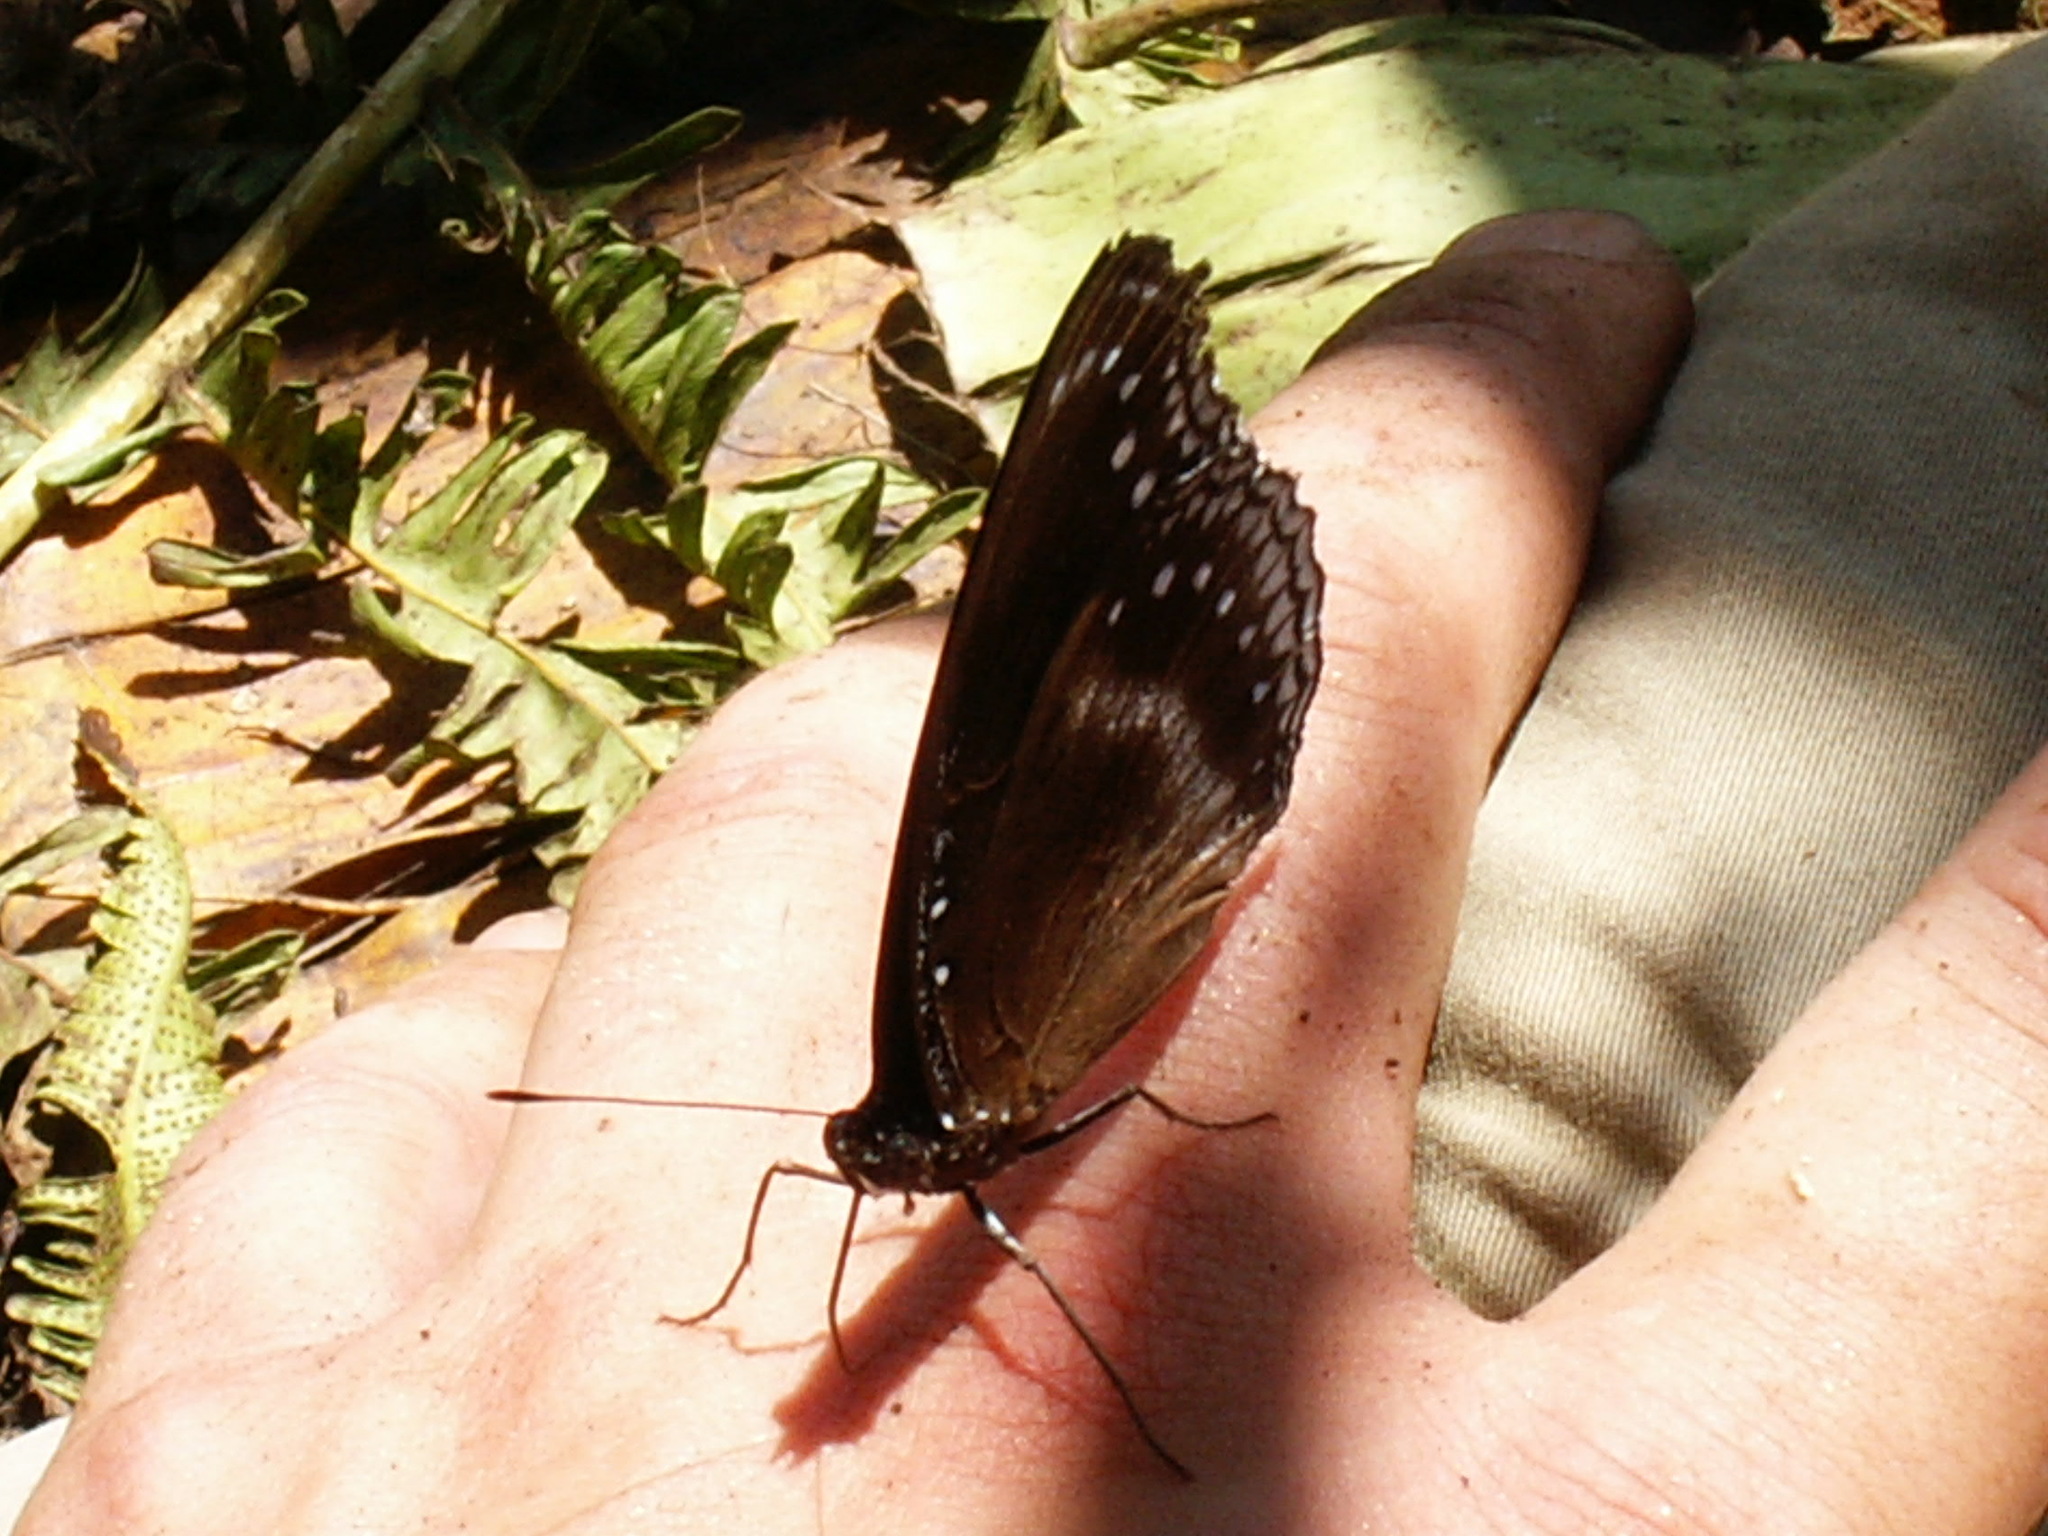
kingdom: Animalia
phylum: Arthropoda
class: Insecta
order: Lepidoptera
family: Nymphalidae
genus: Hypolimnas
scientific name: Hypolimnas bolina
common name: Great eggfly
